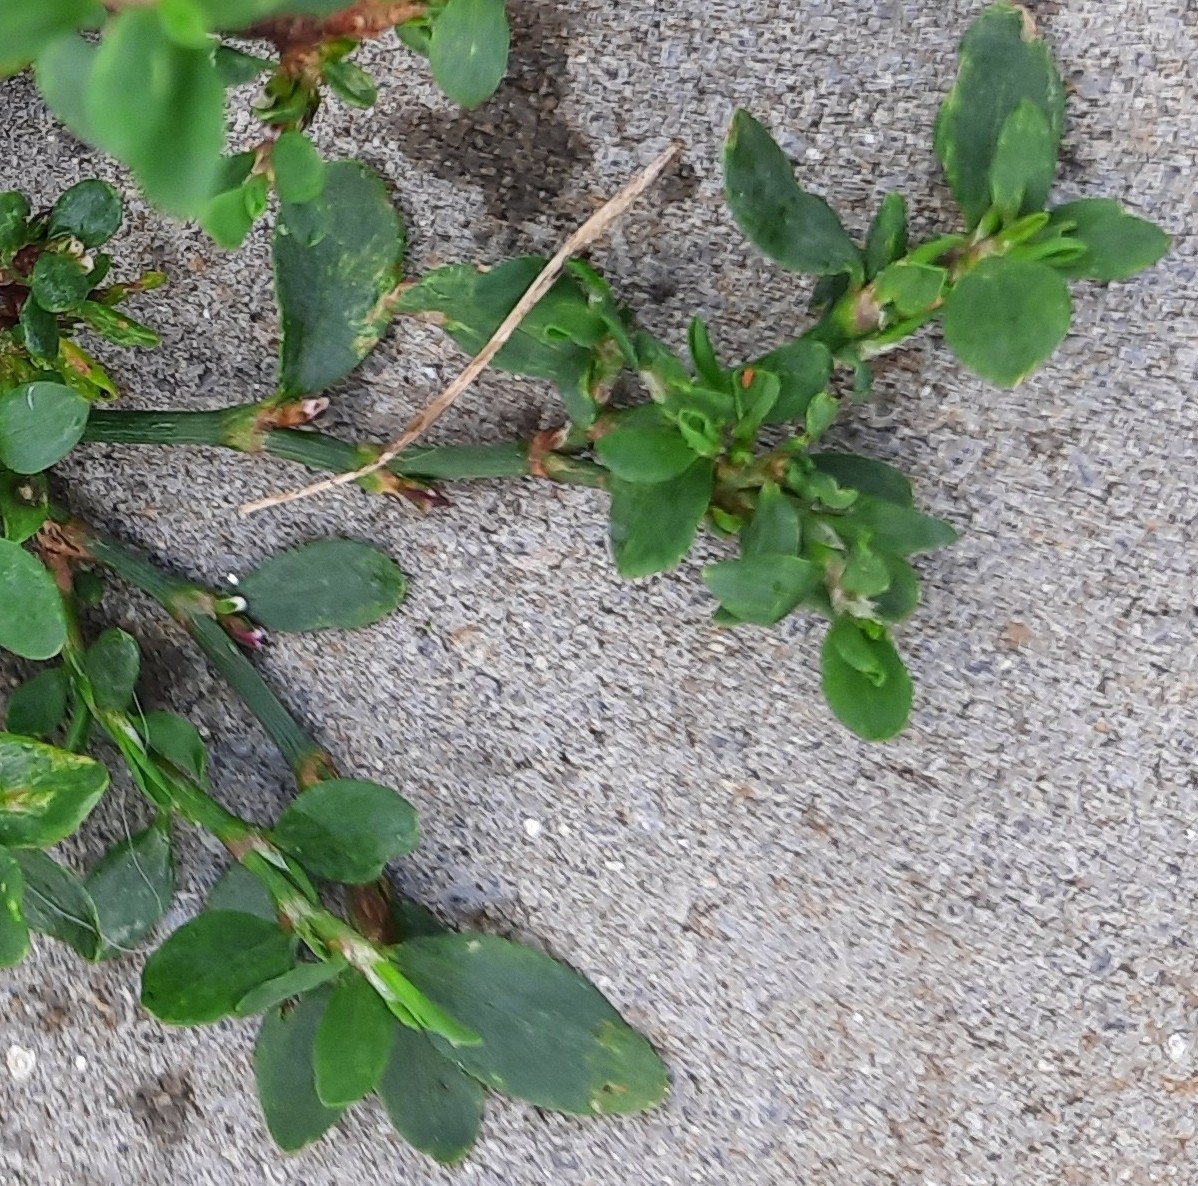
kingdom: Plantae
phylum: Tracheophyta
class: Magnoliopsida
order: Caryophyllales
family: Polygonaceae
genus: Polygonum
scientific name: Polygonum
